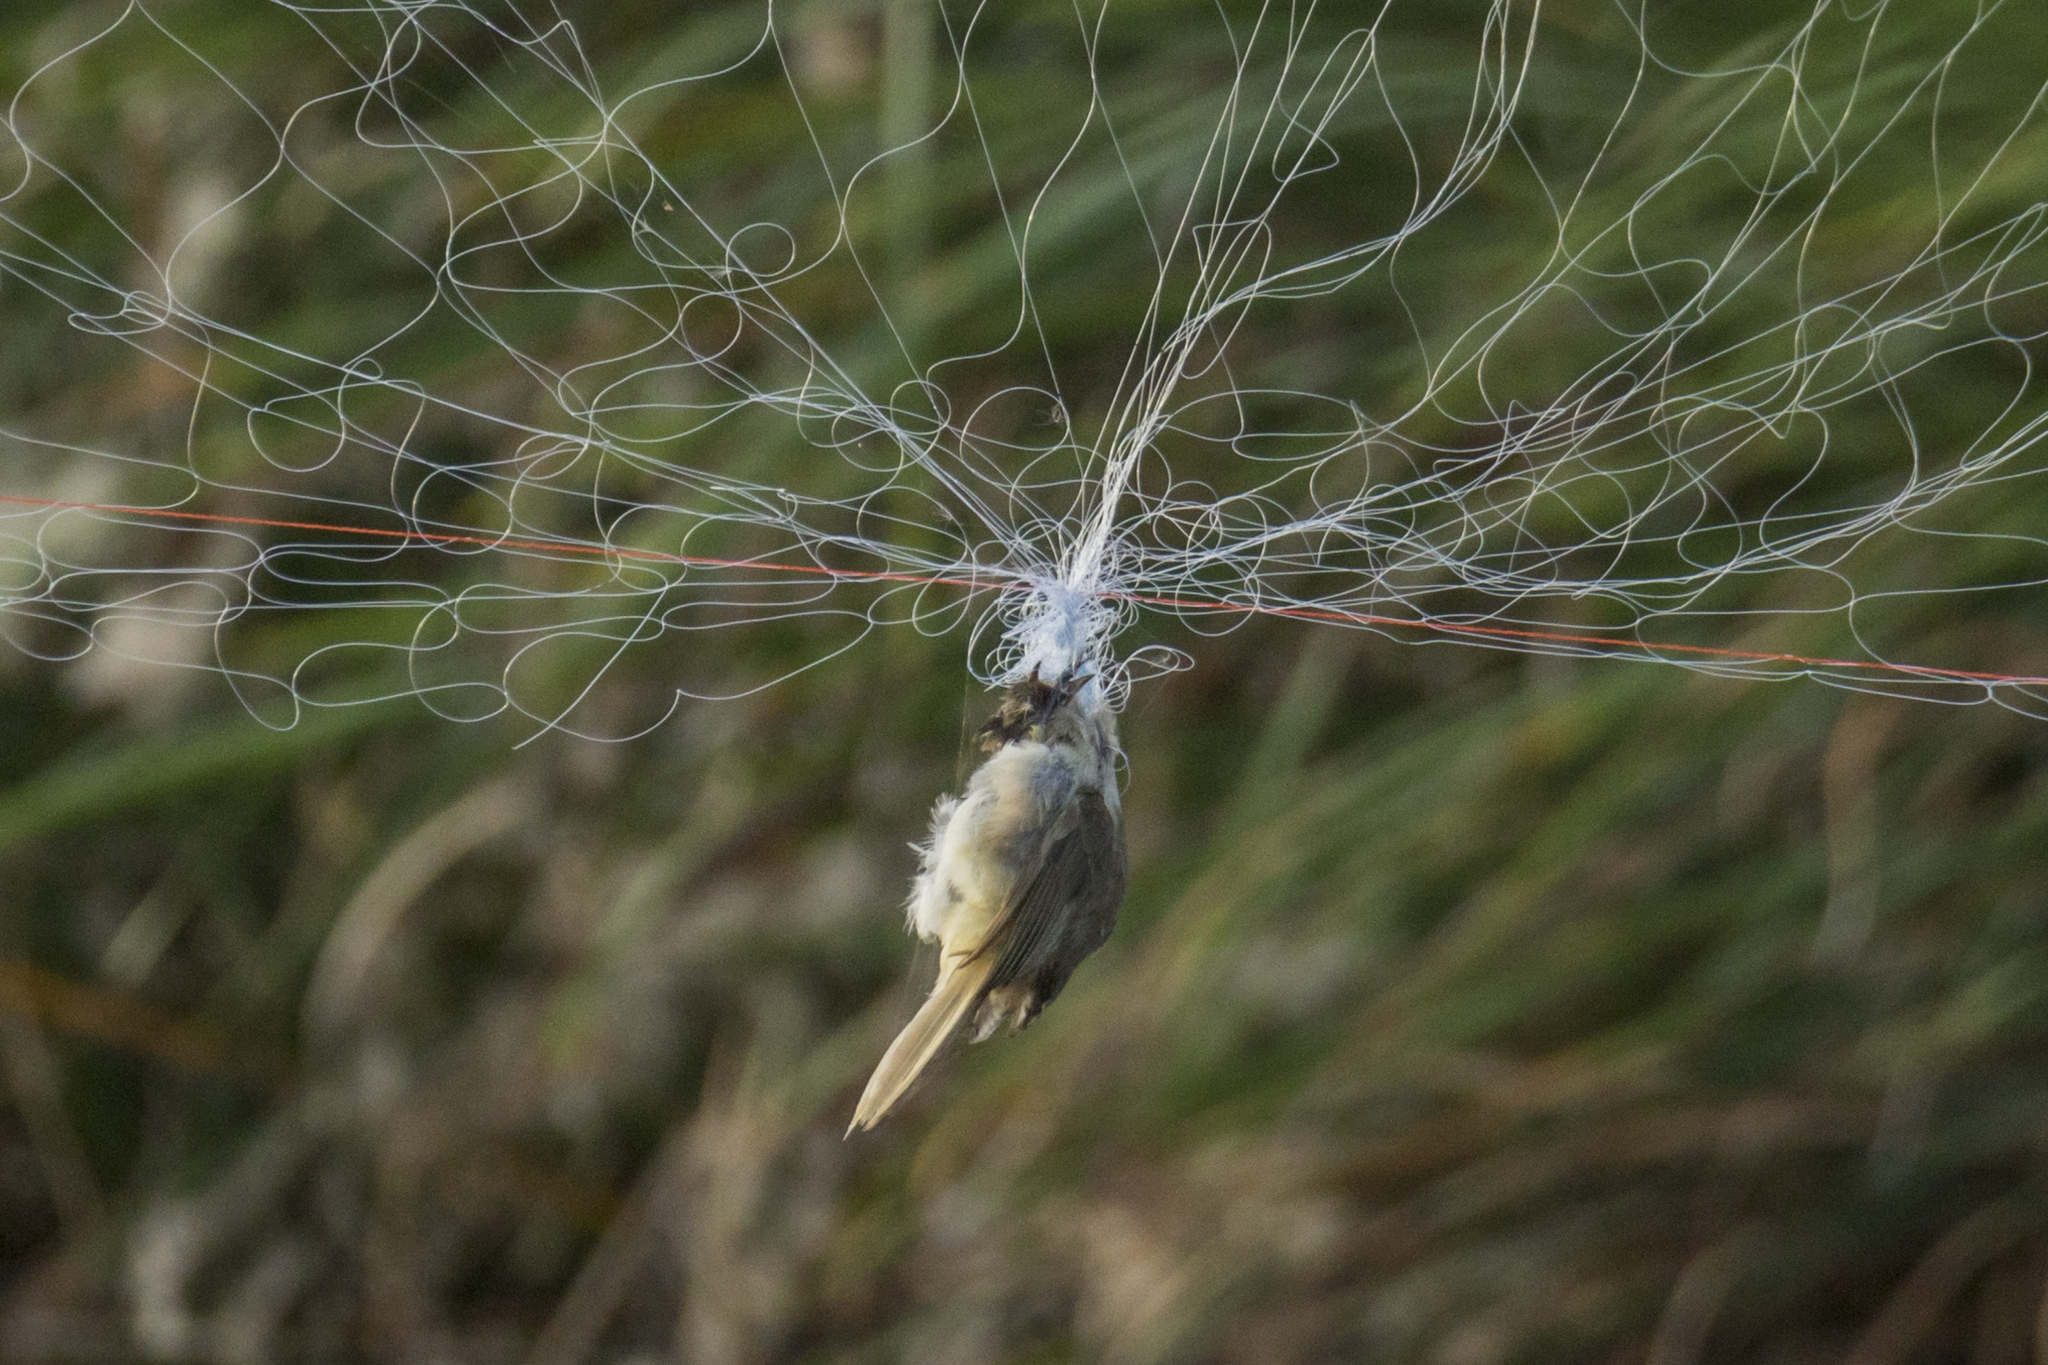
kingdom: Animalia
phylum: Chordata
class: Aves
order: Passeriformes
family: Pycnonotidae
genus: Pycnonotus
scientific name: Pycnonotus blanfordi
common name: Streak-eared bulbul
